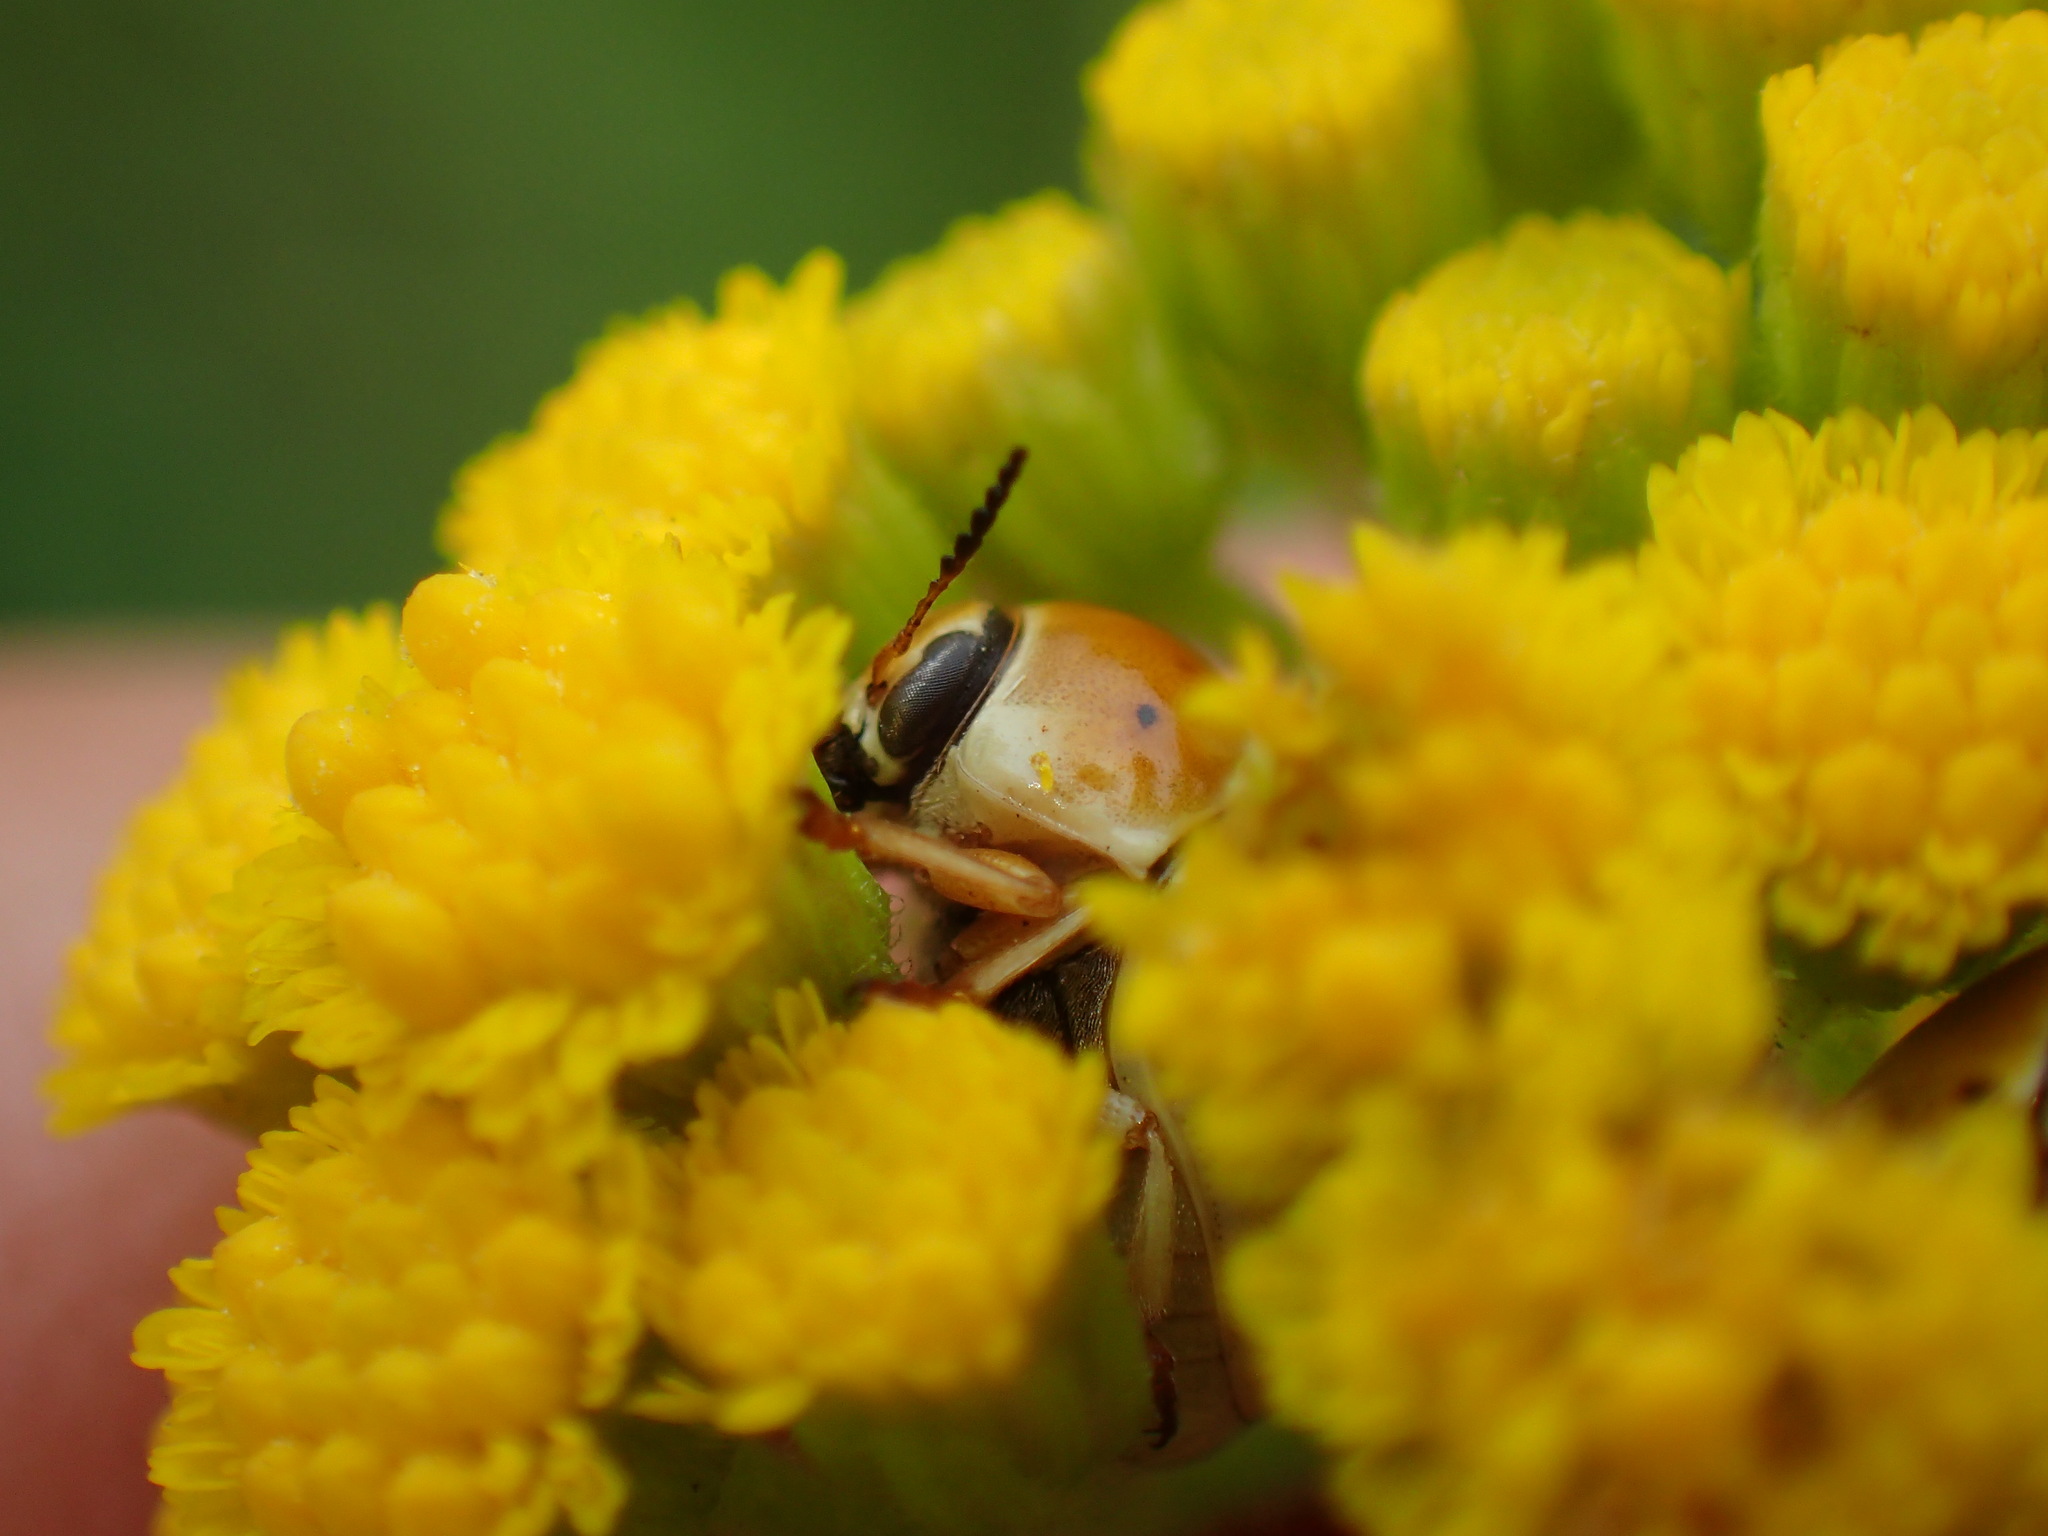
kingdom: Animalia
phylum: Arthropoda
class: Insecta
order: Coleoptera
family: Chrysomelidae
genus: Cryptocephalus
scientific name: Cryptocephalus
